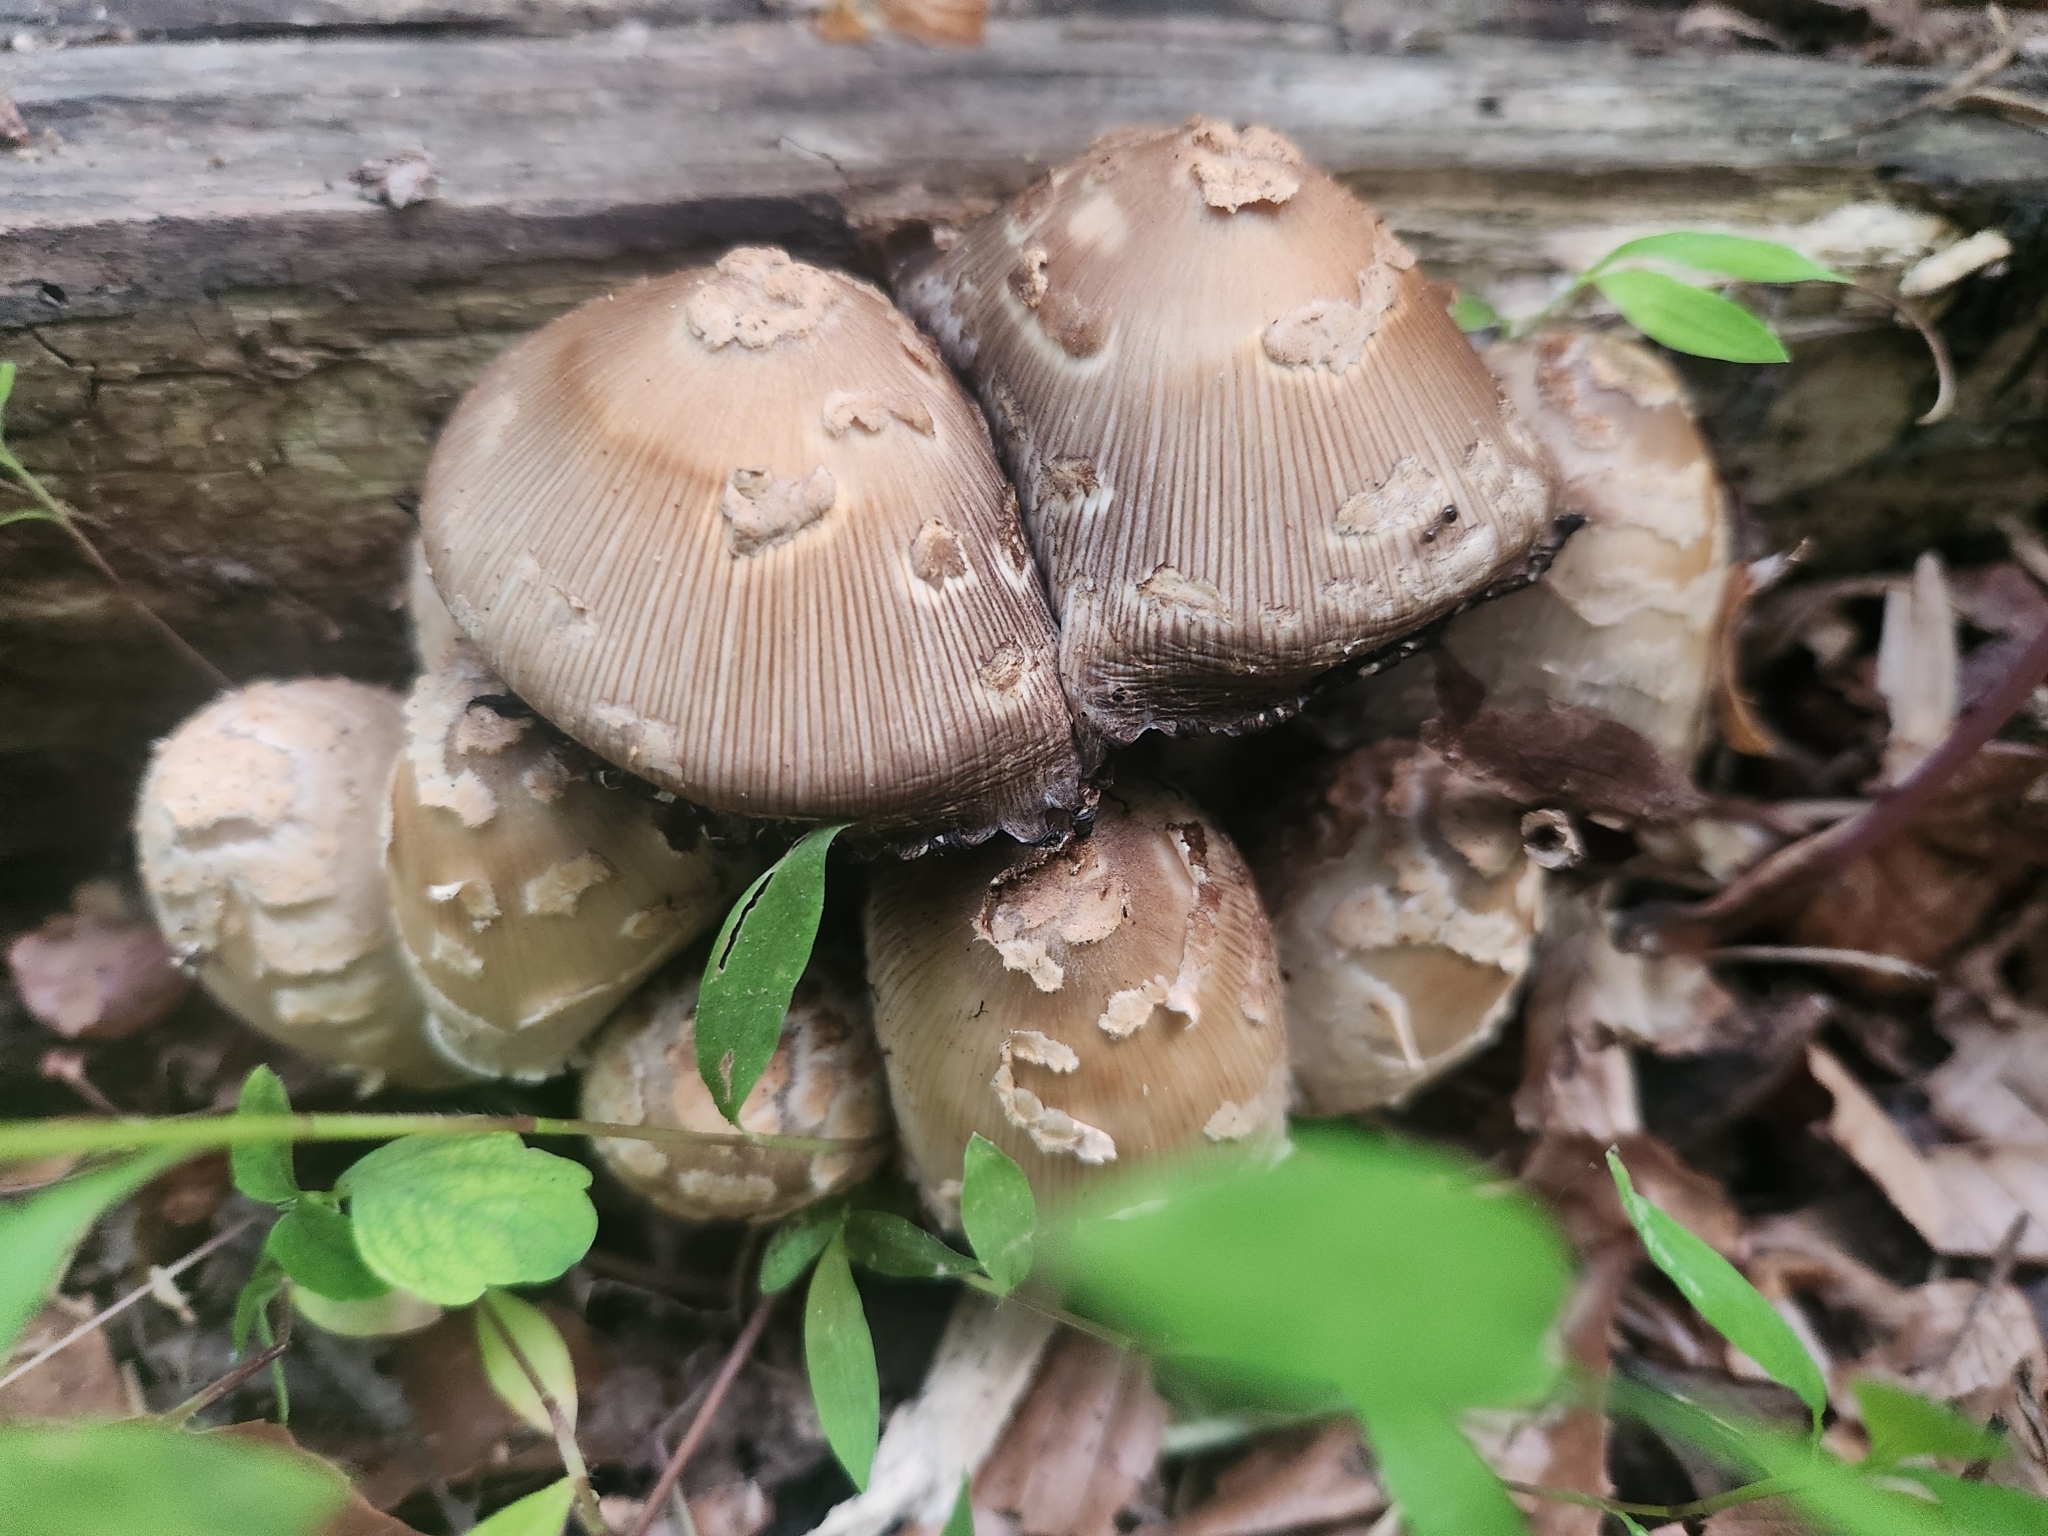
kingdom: Fungi
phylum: Basidiomycota
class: Agaricomycetes
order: Agaricales
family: Psathyrellaceae
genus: Coprinopsis
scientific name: Coprinopsis variegata
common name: Scaly ink cap
